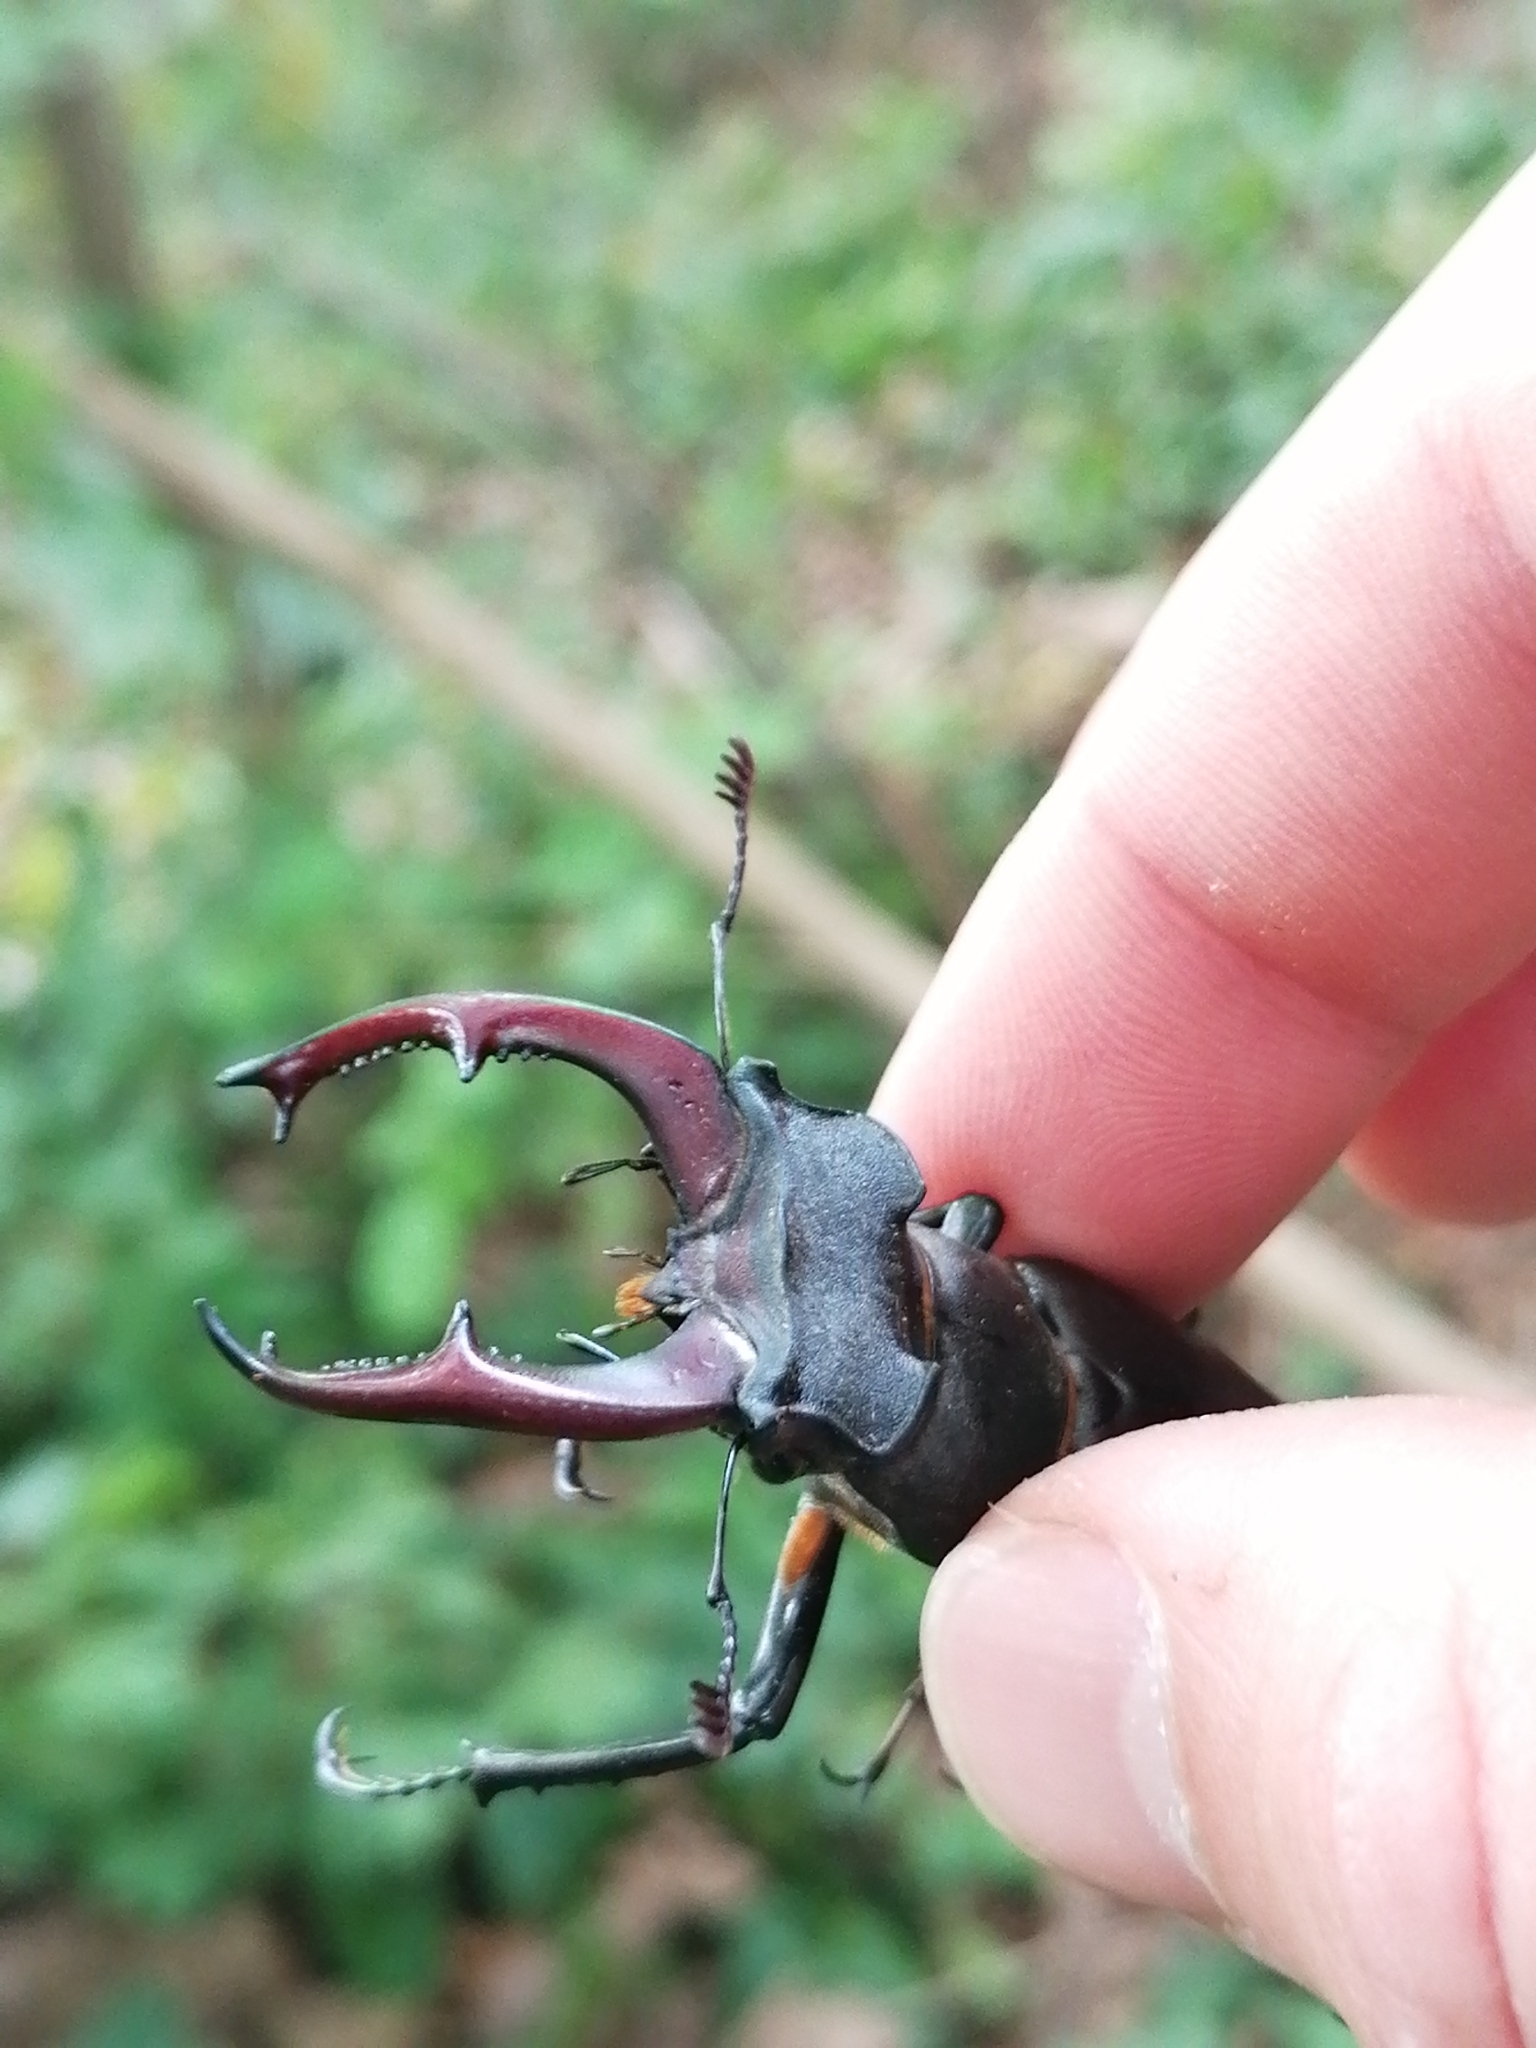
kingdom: Animalia
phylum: Arthropoda
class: Insecta
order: Coleoptera
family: Lucanidae
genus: Lucanus
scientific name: Lucanus cervus
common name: Stag beetle
